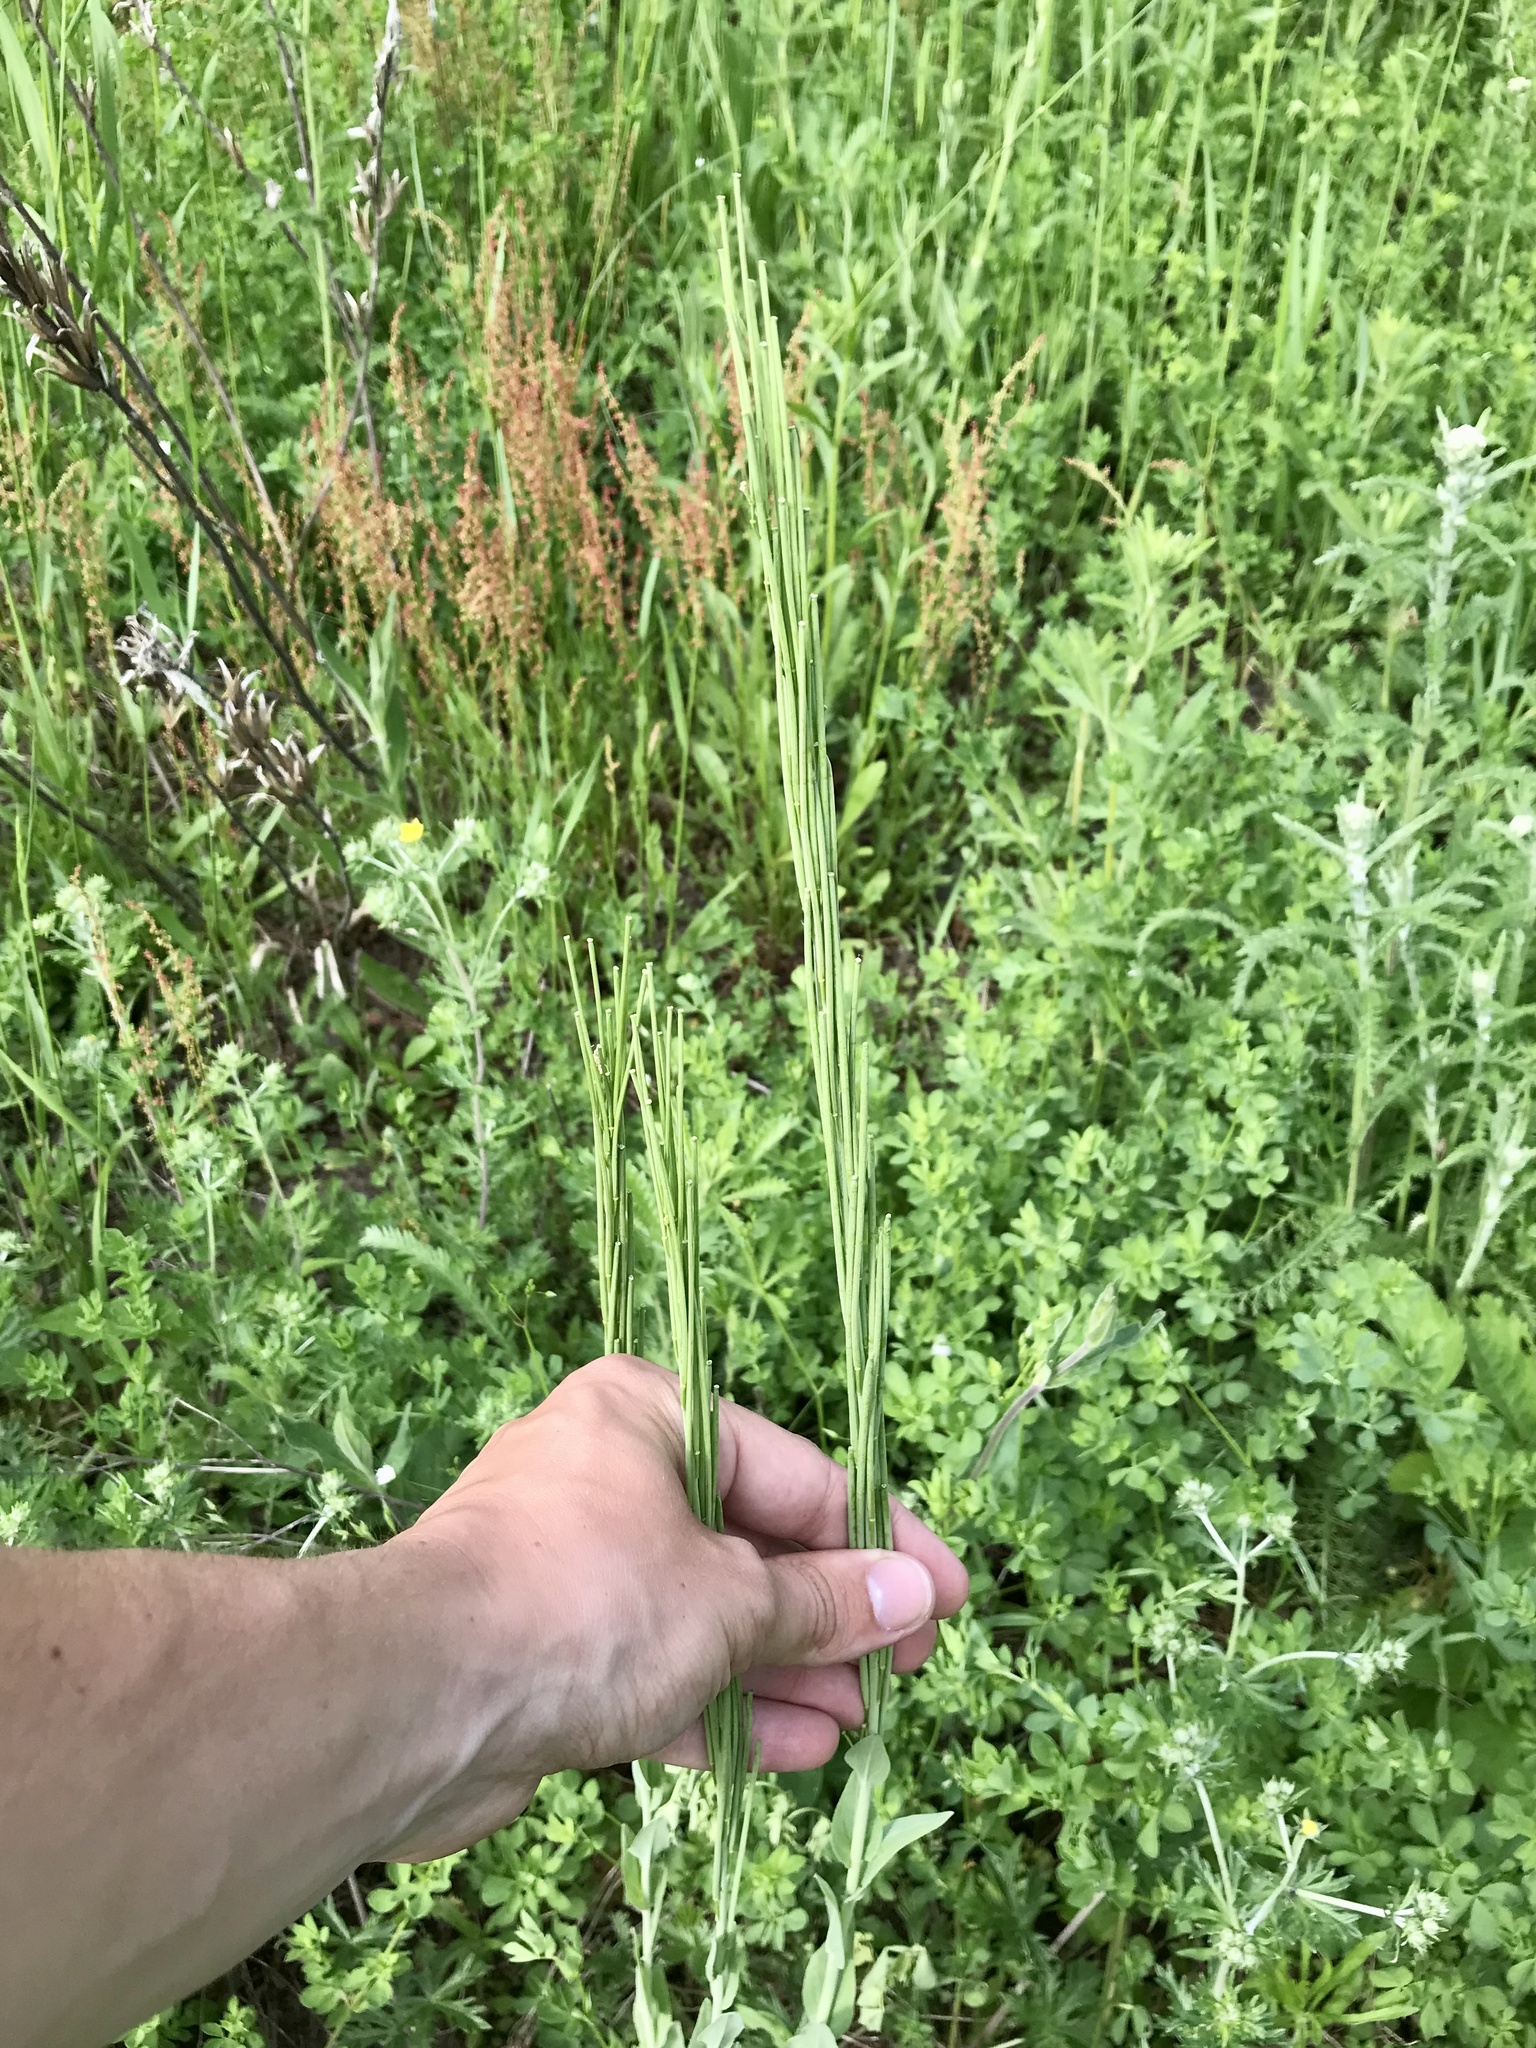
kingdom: Plantae
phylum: Tracheophyta
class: Magnoliopsida
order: Brassicales
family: Brassicaceae
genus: Turritis
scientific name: Turritis glabra
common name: Tower rockcress
